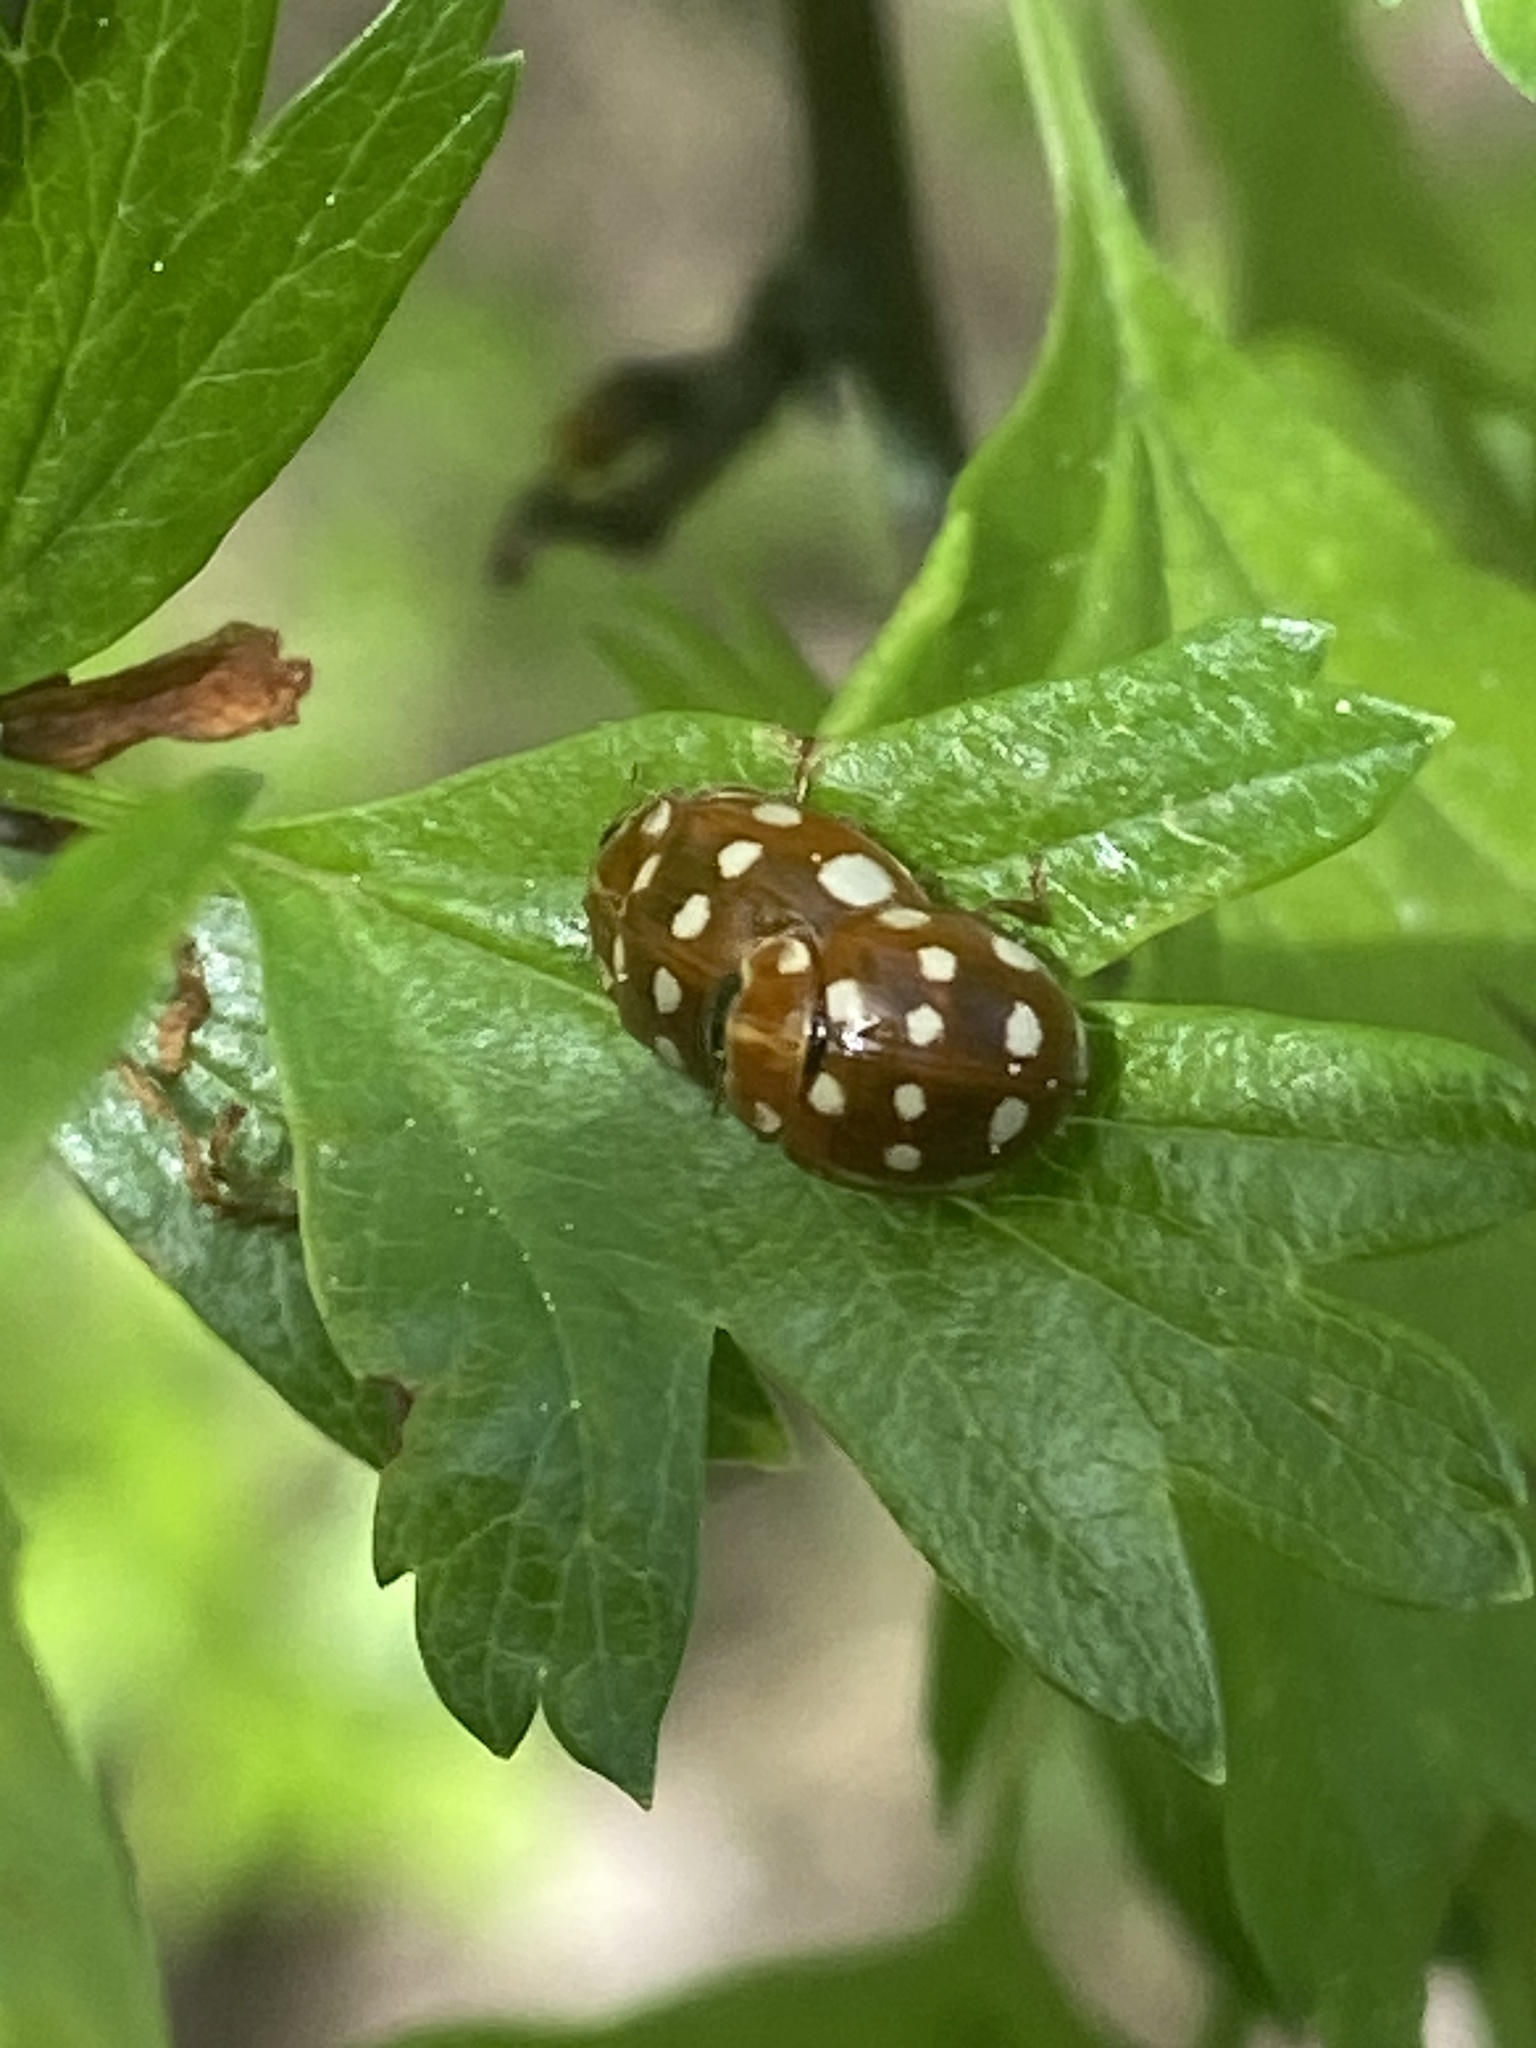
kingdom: Animalia
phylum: Arthropoda
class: Insecta
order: Coleoptera
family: Coccinellidae
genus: Calvia
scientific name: Calvia quatuordecimguttata
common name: Cream-spot ladybird
